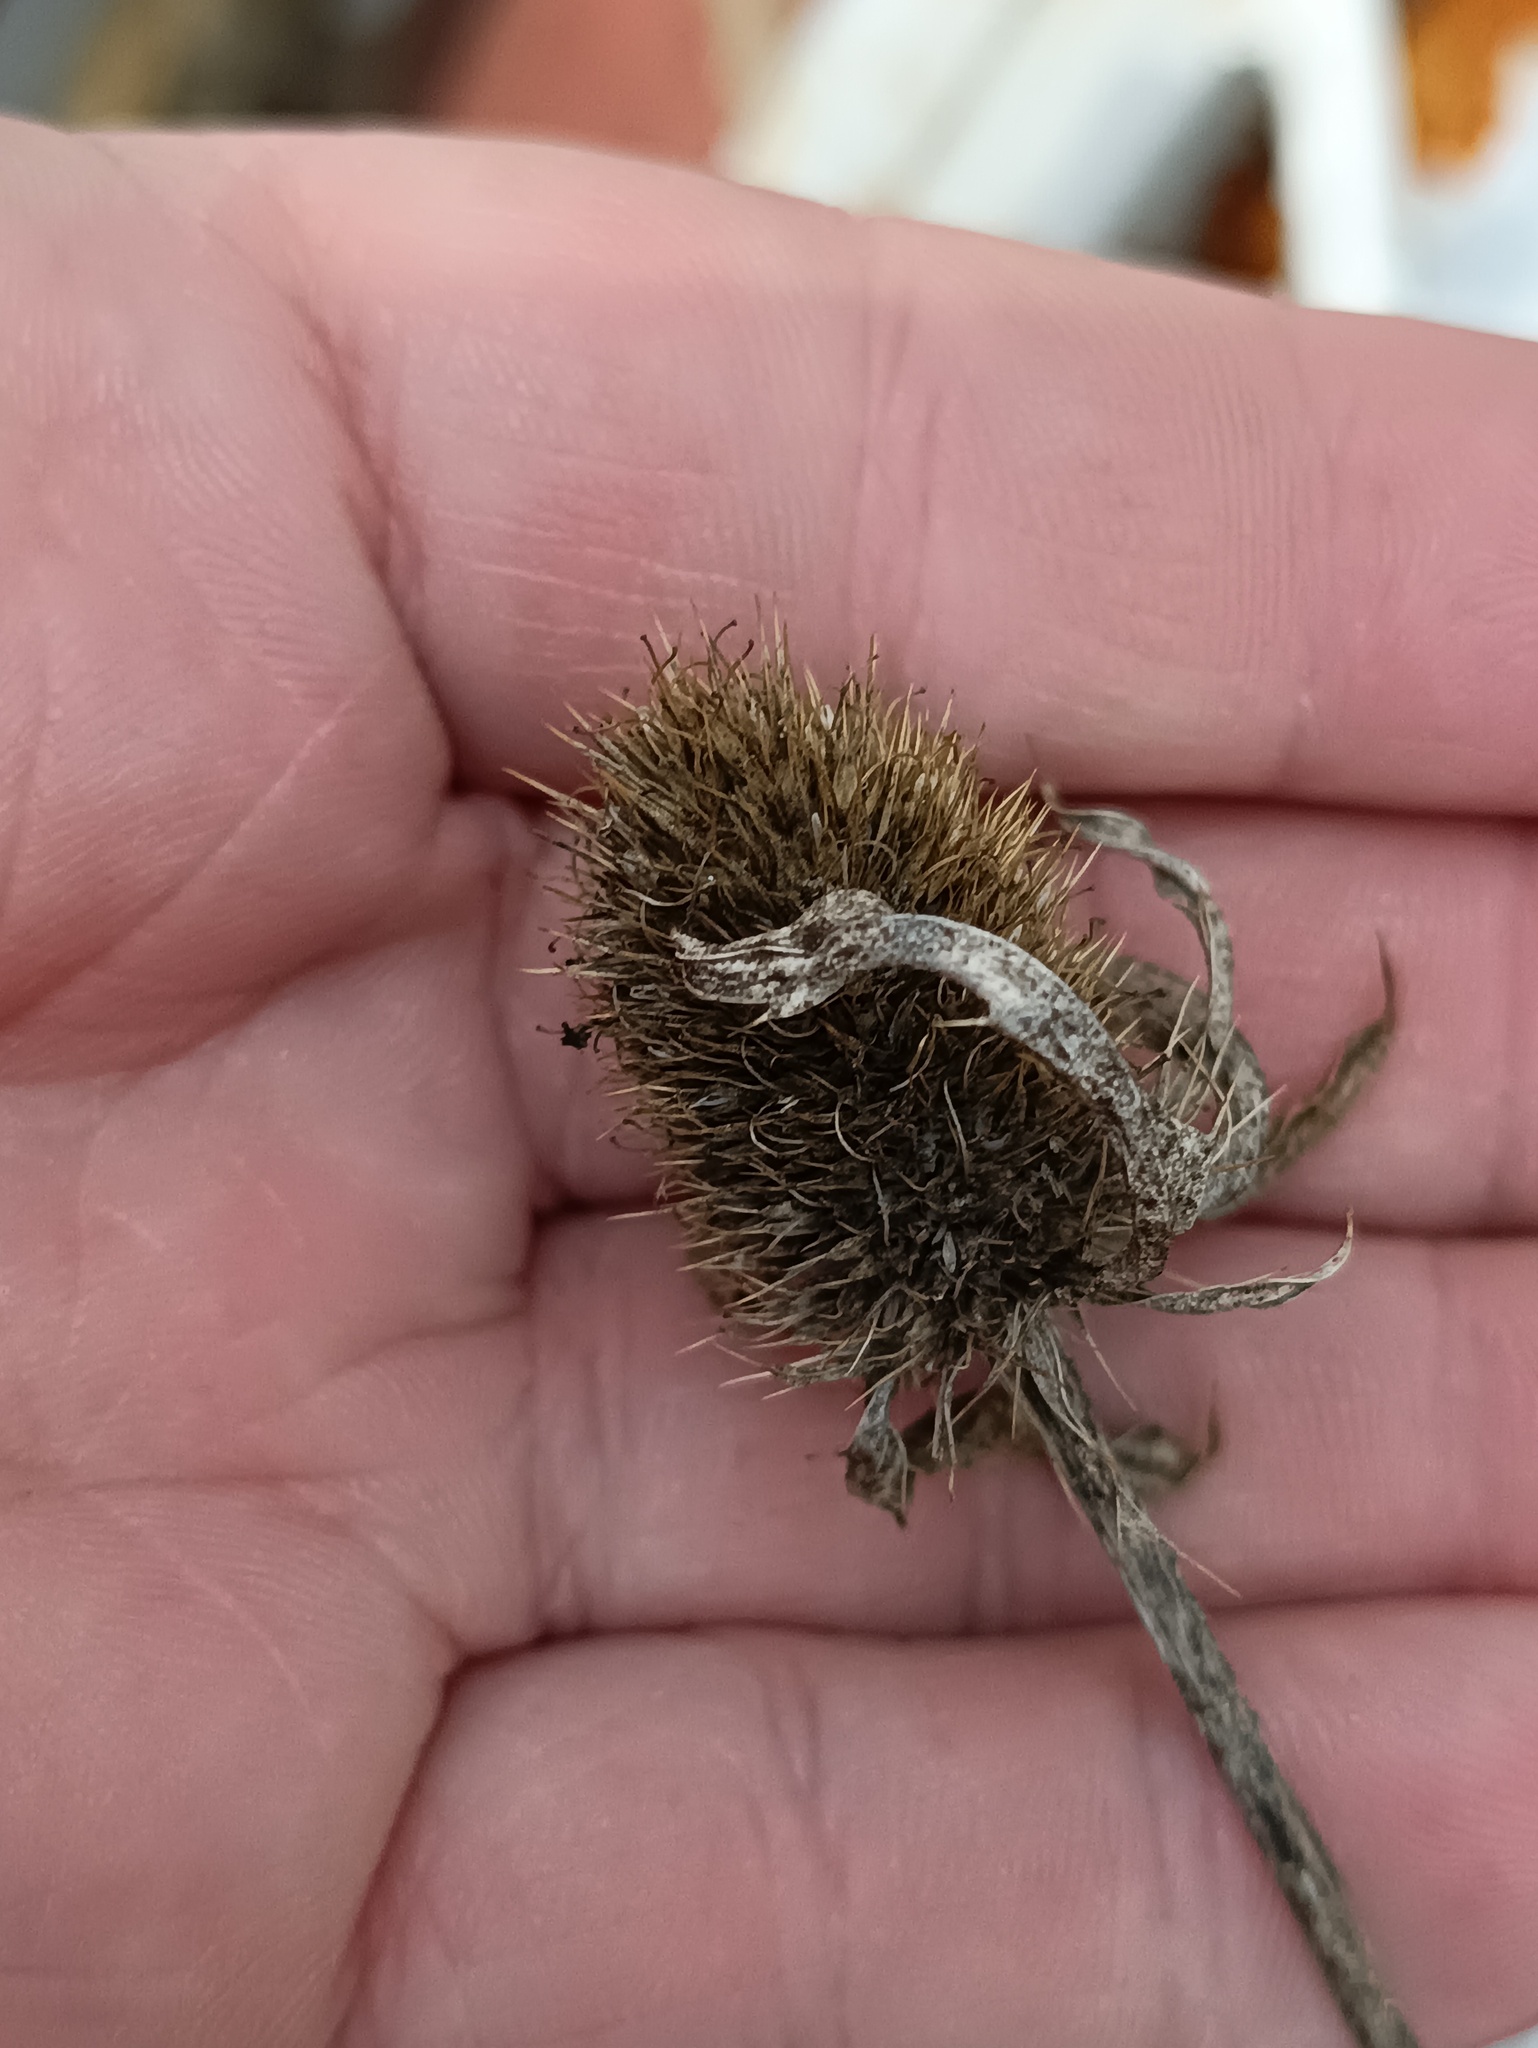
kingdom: Plantae
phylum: Tracheophyta
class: Magnoliopsida
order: Apiales
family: Apiaceae
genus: Eryngium
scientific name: Eryngium planum
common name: Blue eryngo
